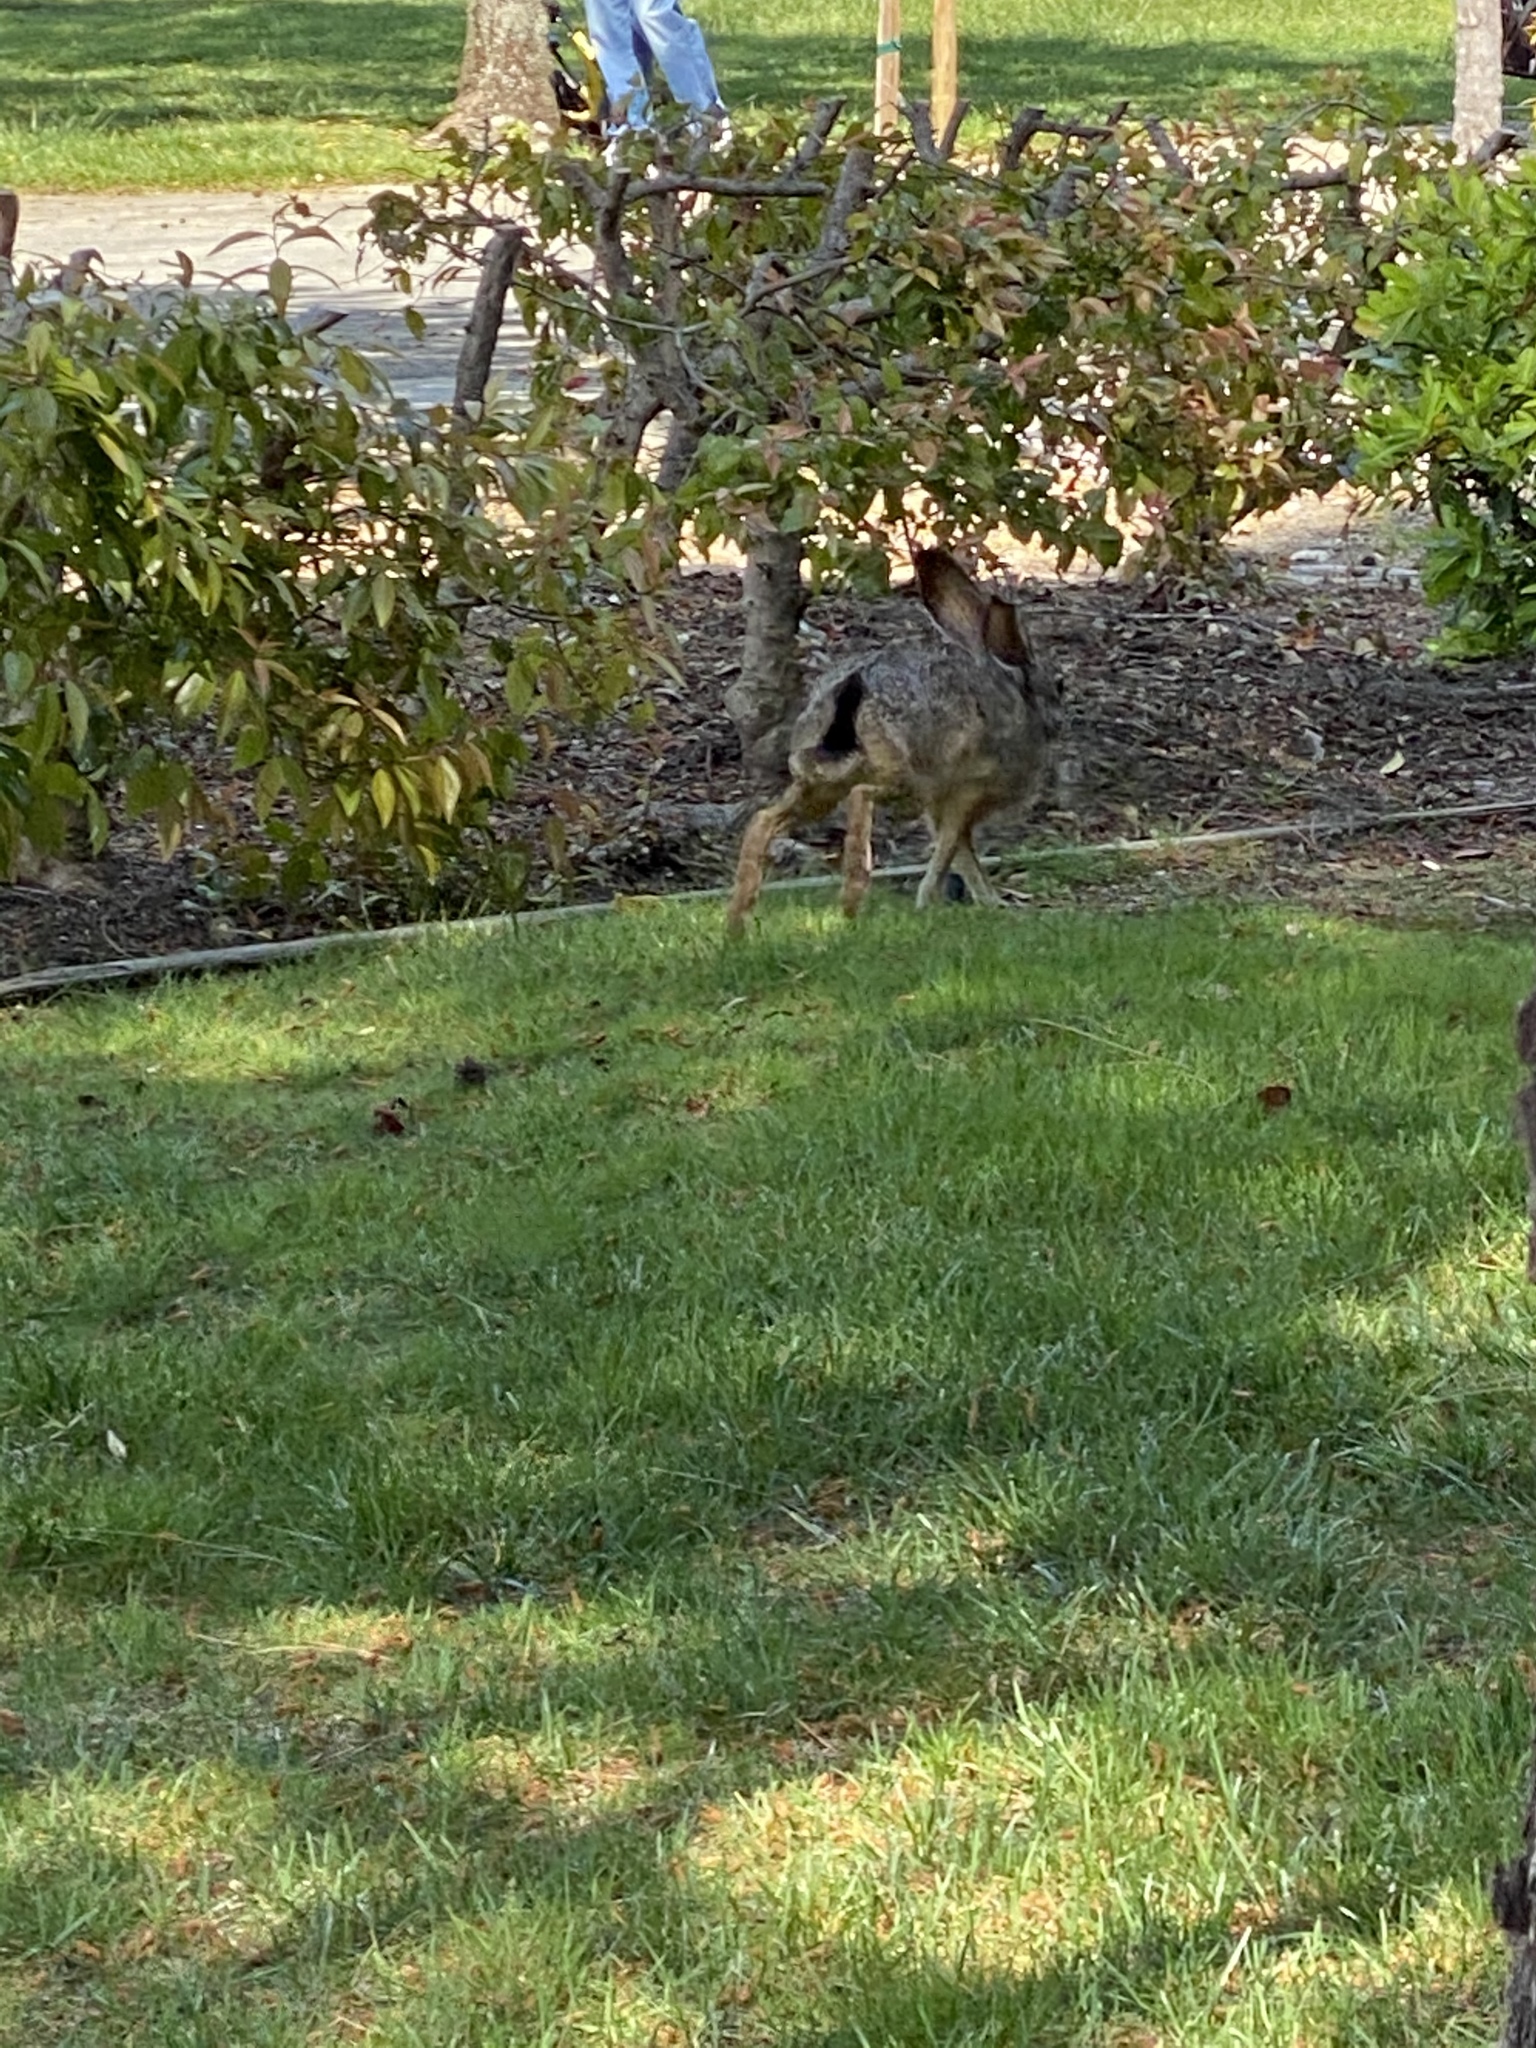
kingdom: Animalia
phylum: Chordata
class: Mammalia
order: Lagomorpha
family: Leporidae
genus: Lepus
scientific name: Lepus californicus
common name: Black-tailed jackrabbit
